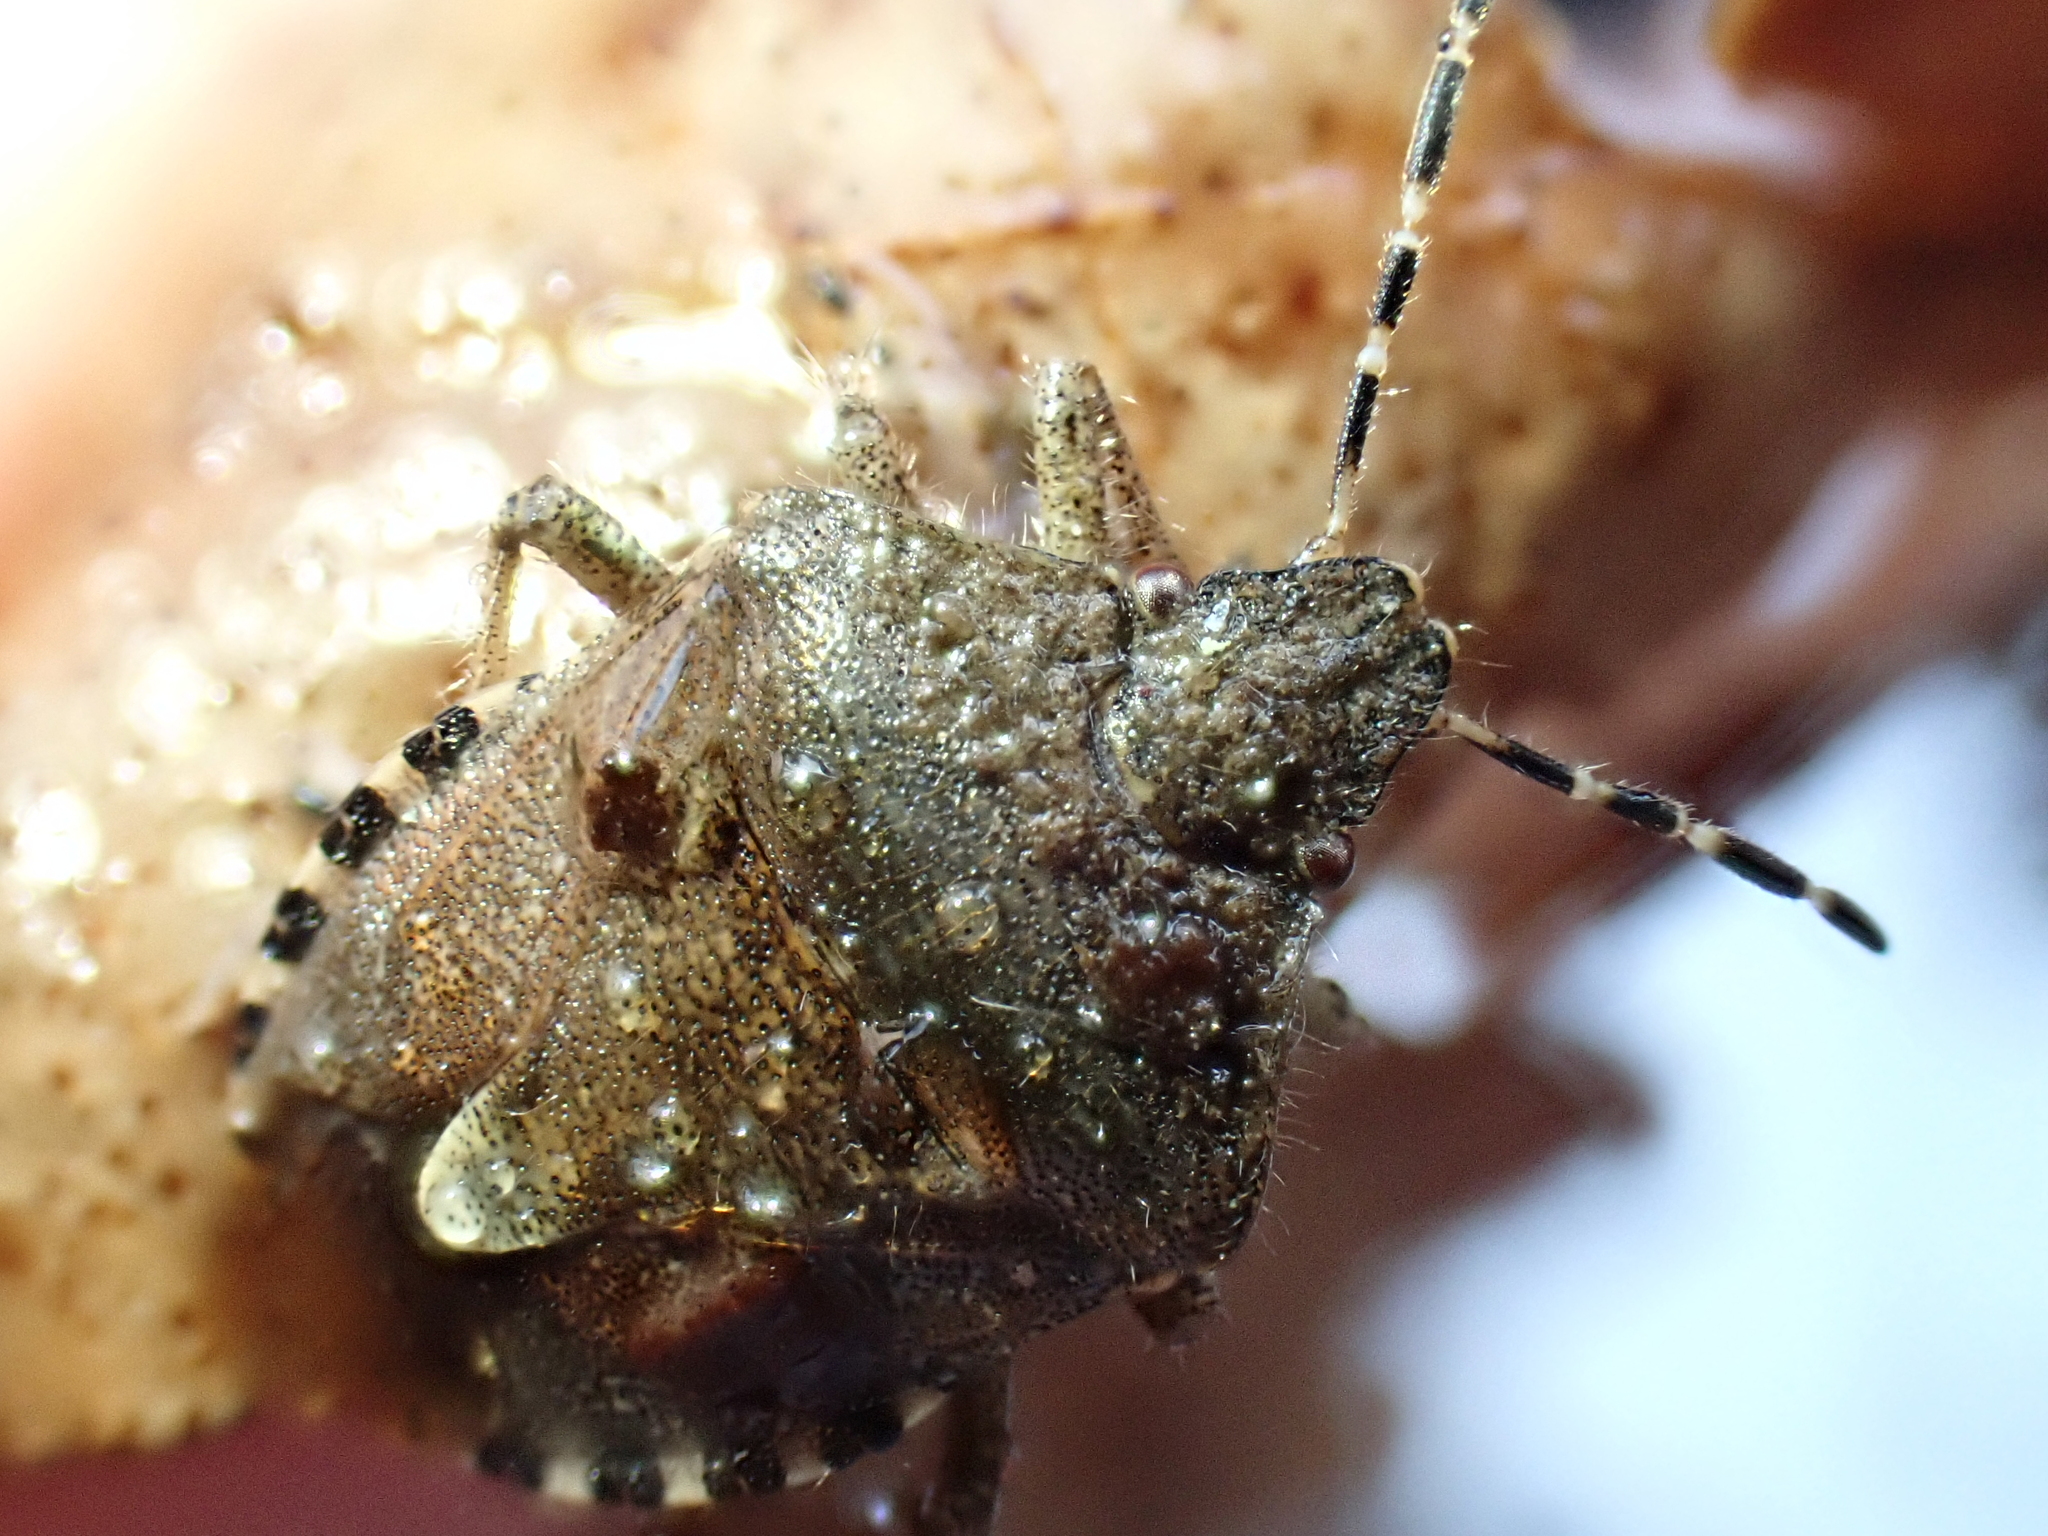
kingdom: Animalia
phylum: Arthropoda
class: Insecta
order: Hemiptera
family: Pentatomidae
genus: Dolycoris
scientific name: Dolycoris baccarum
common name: Sloe bug
